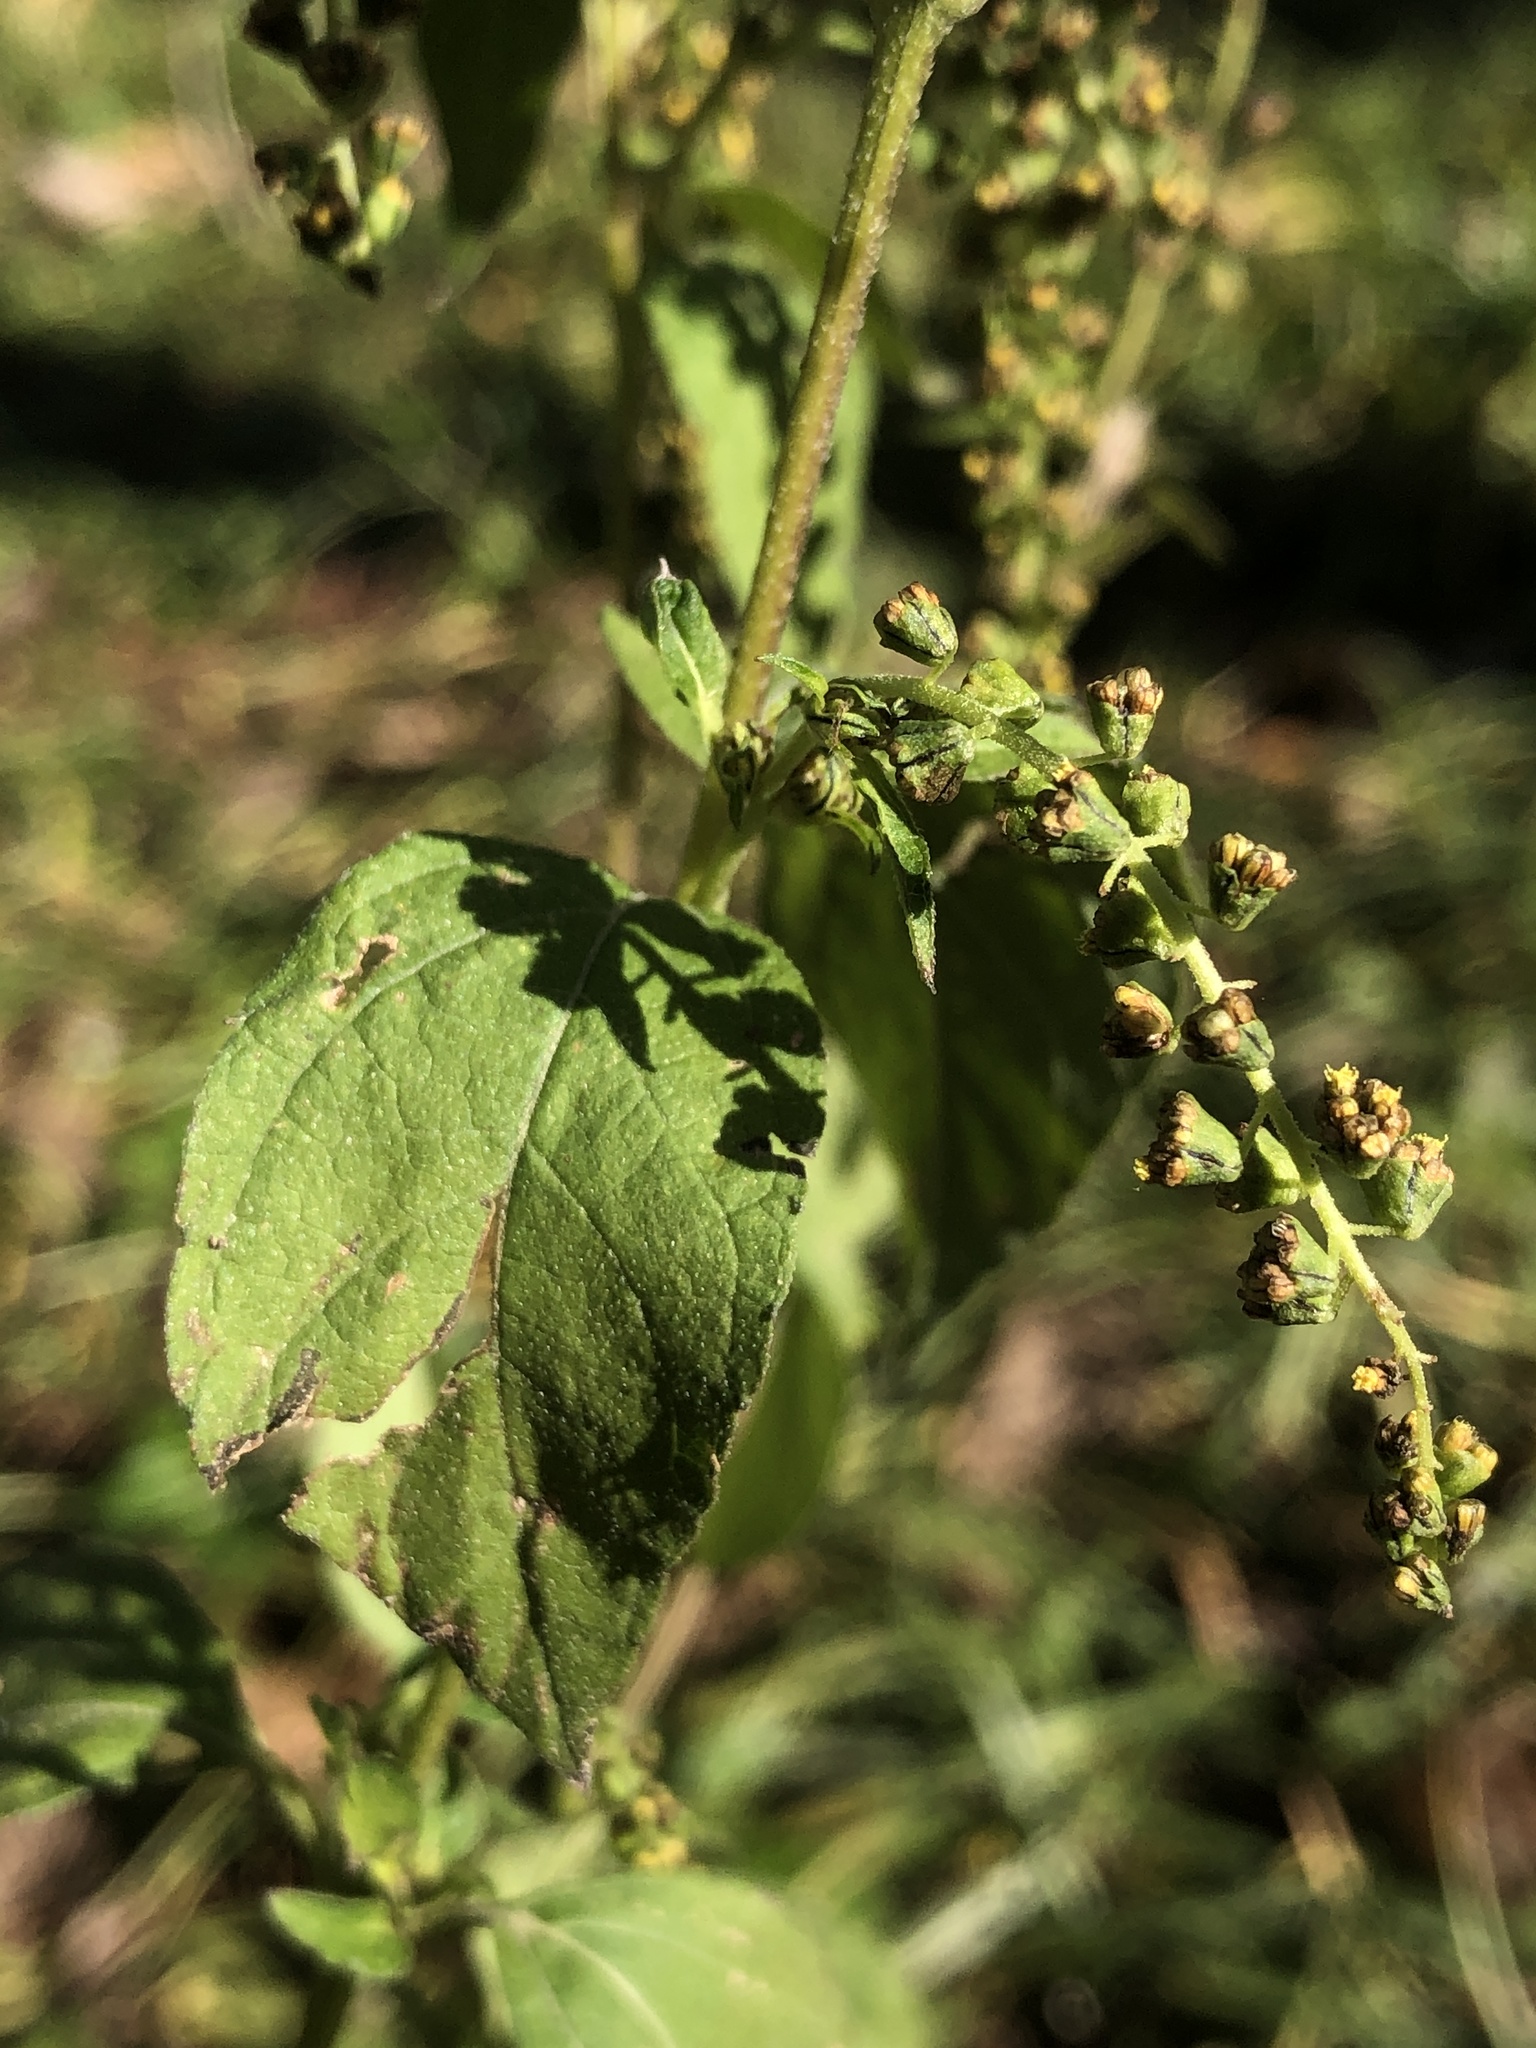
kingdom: Plantae
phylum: Tracheophyta
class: Magnoliopsida
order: Asterales
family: Asteraceae
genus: Ambrosia
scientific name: Ambrosia trifida
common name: Giant ragweed
